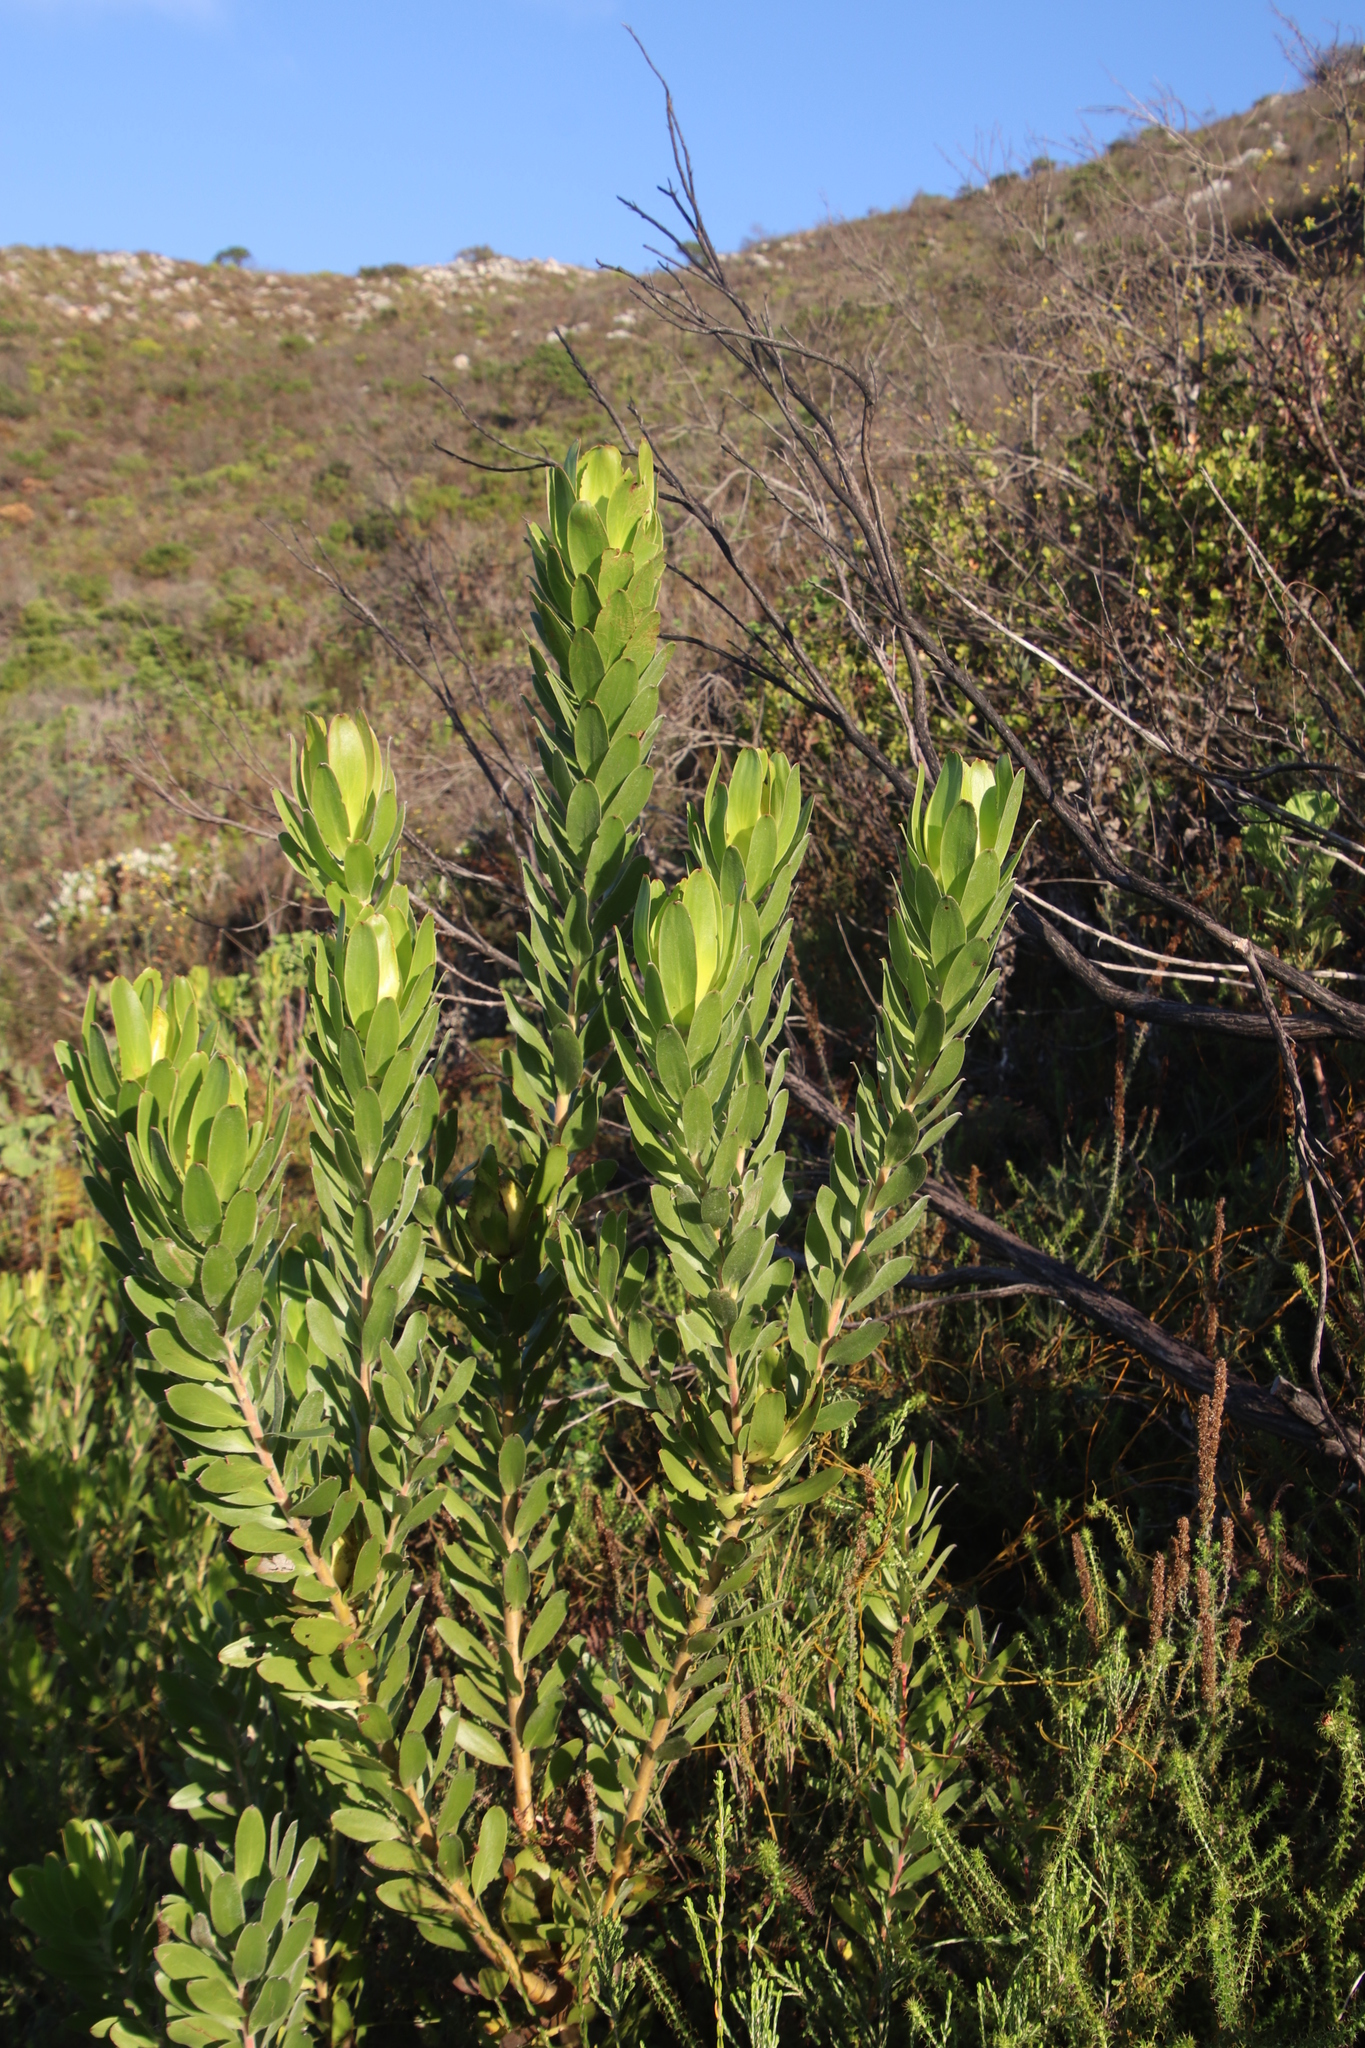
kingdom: Plantae
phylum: Tracheophyta
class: Magnoliopsida
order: Proteales
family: Proteaceae
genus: Leucadendron
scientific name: Leucadendron laureolum
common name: Golden sunshinebush
